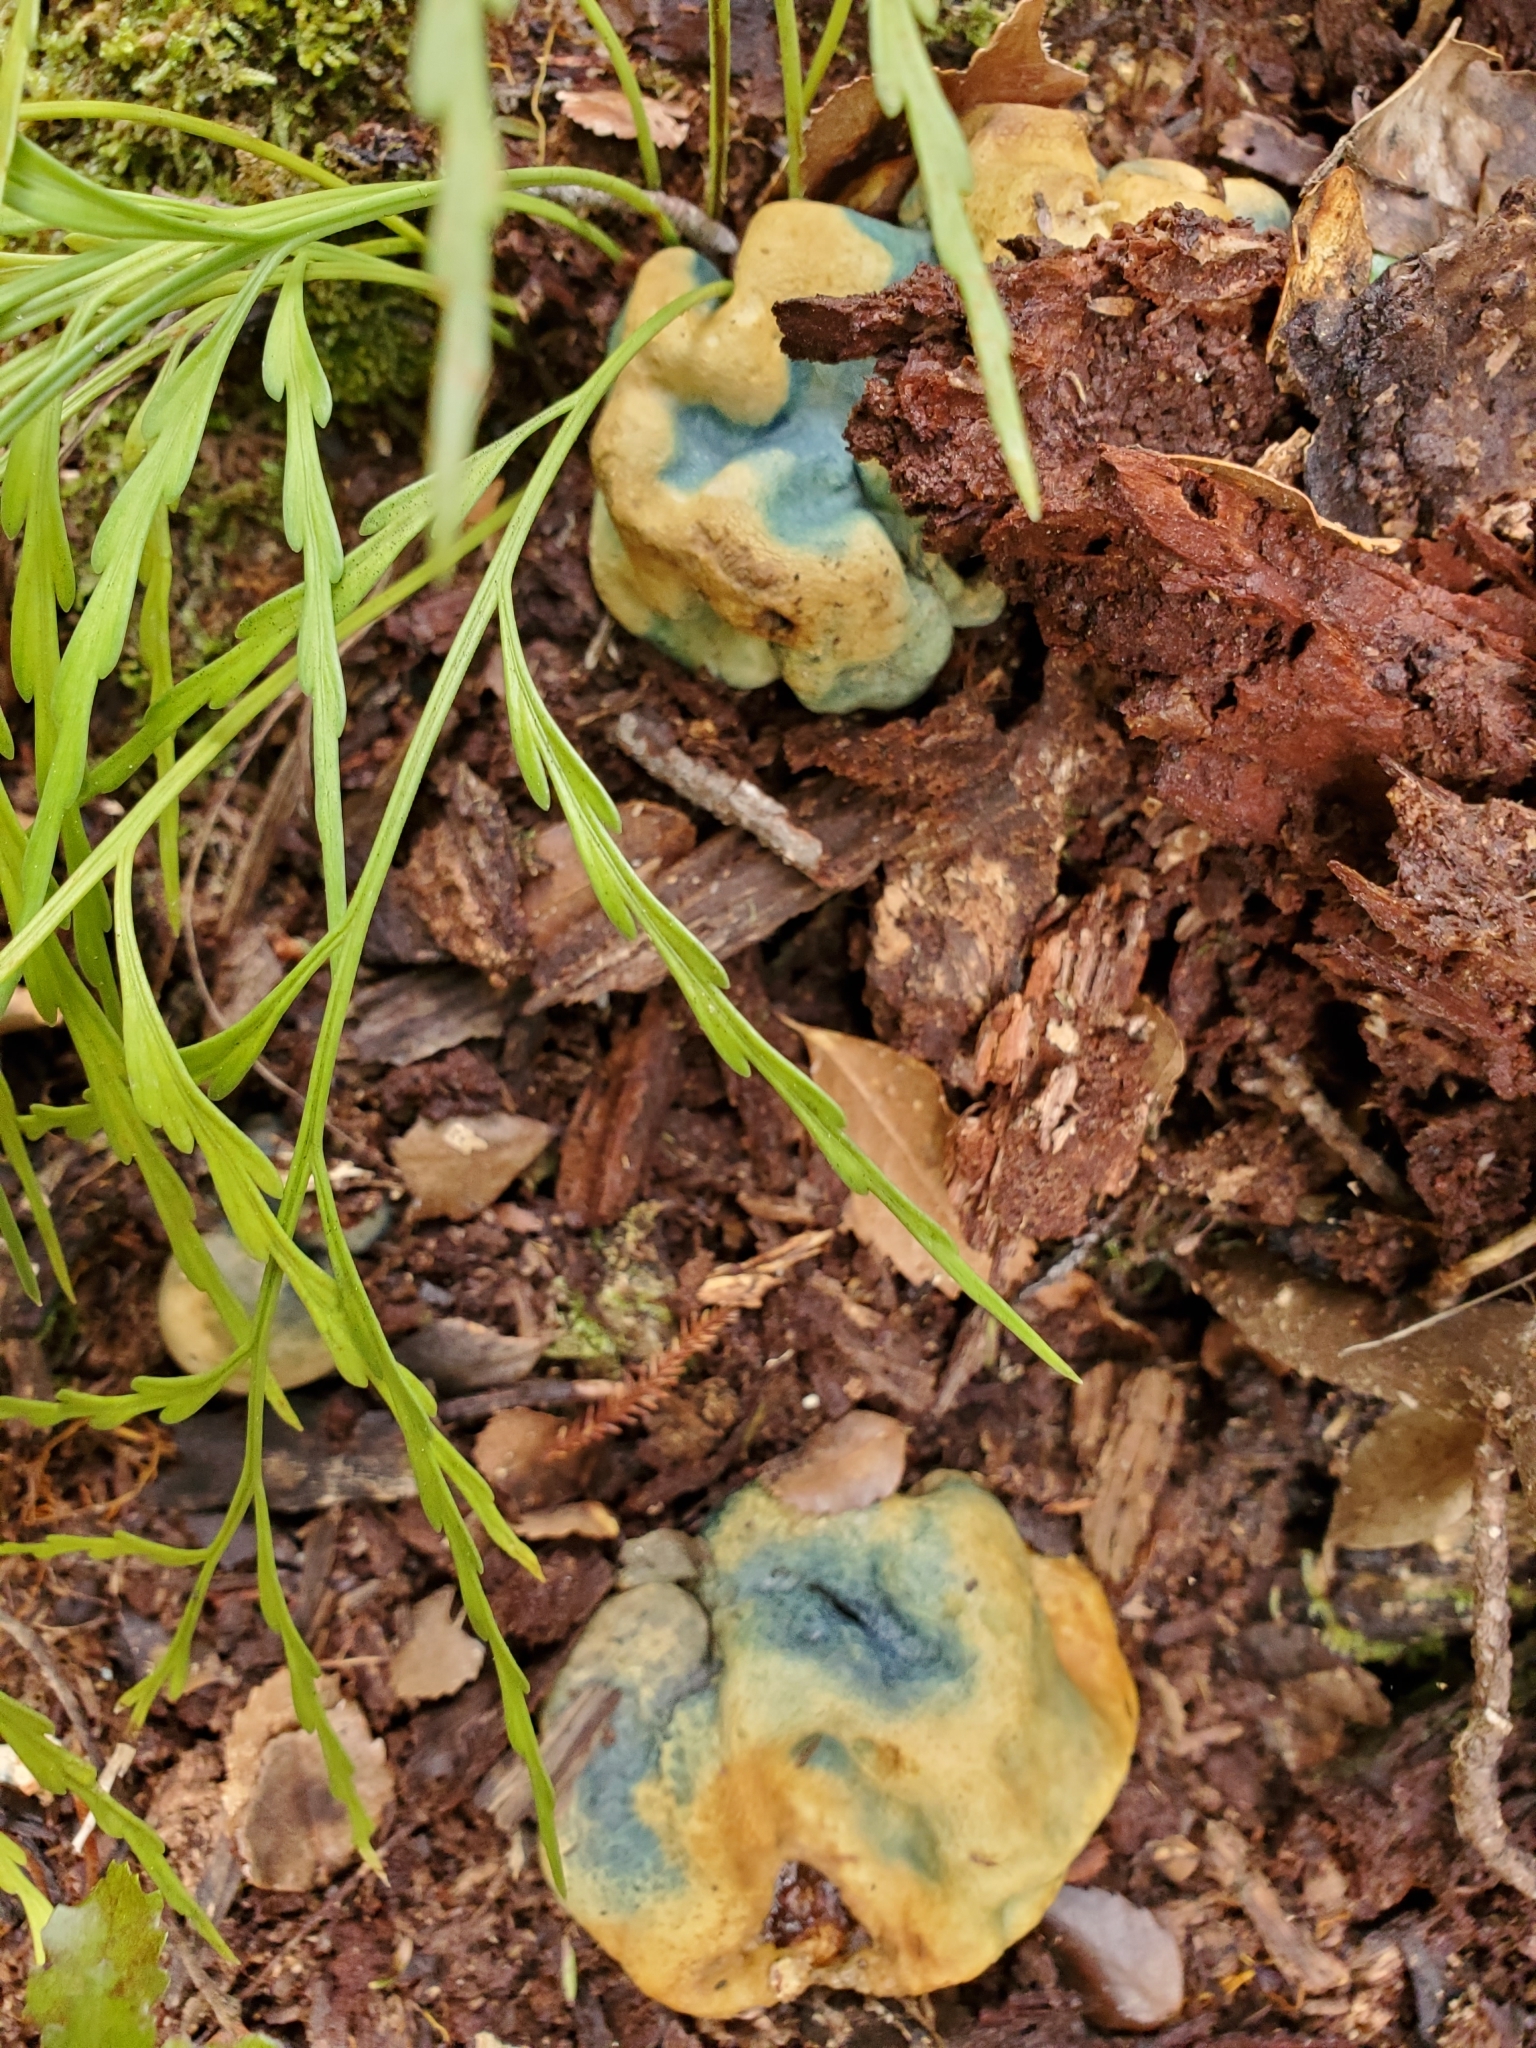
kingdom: Fungi
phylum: Basidiomycota
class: Agaricomycetes
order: Boletales
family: Boletaceae
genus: Leccinum
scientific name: Leccinum pachyderme
